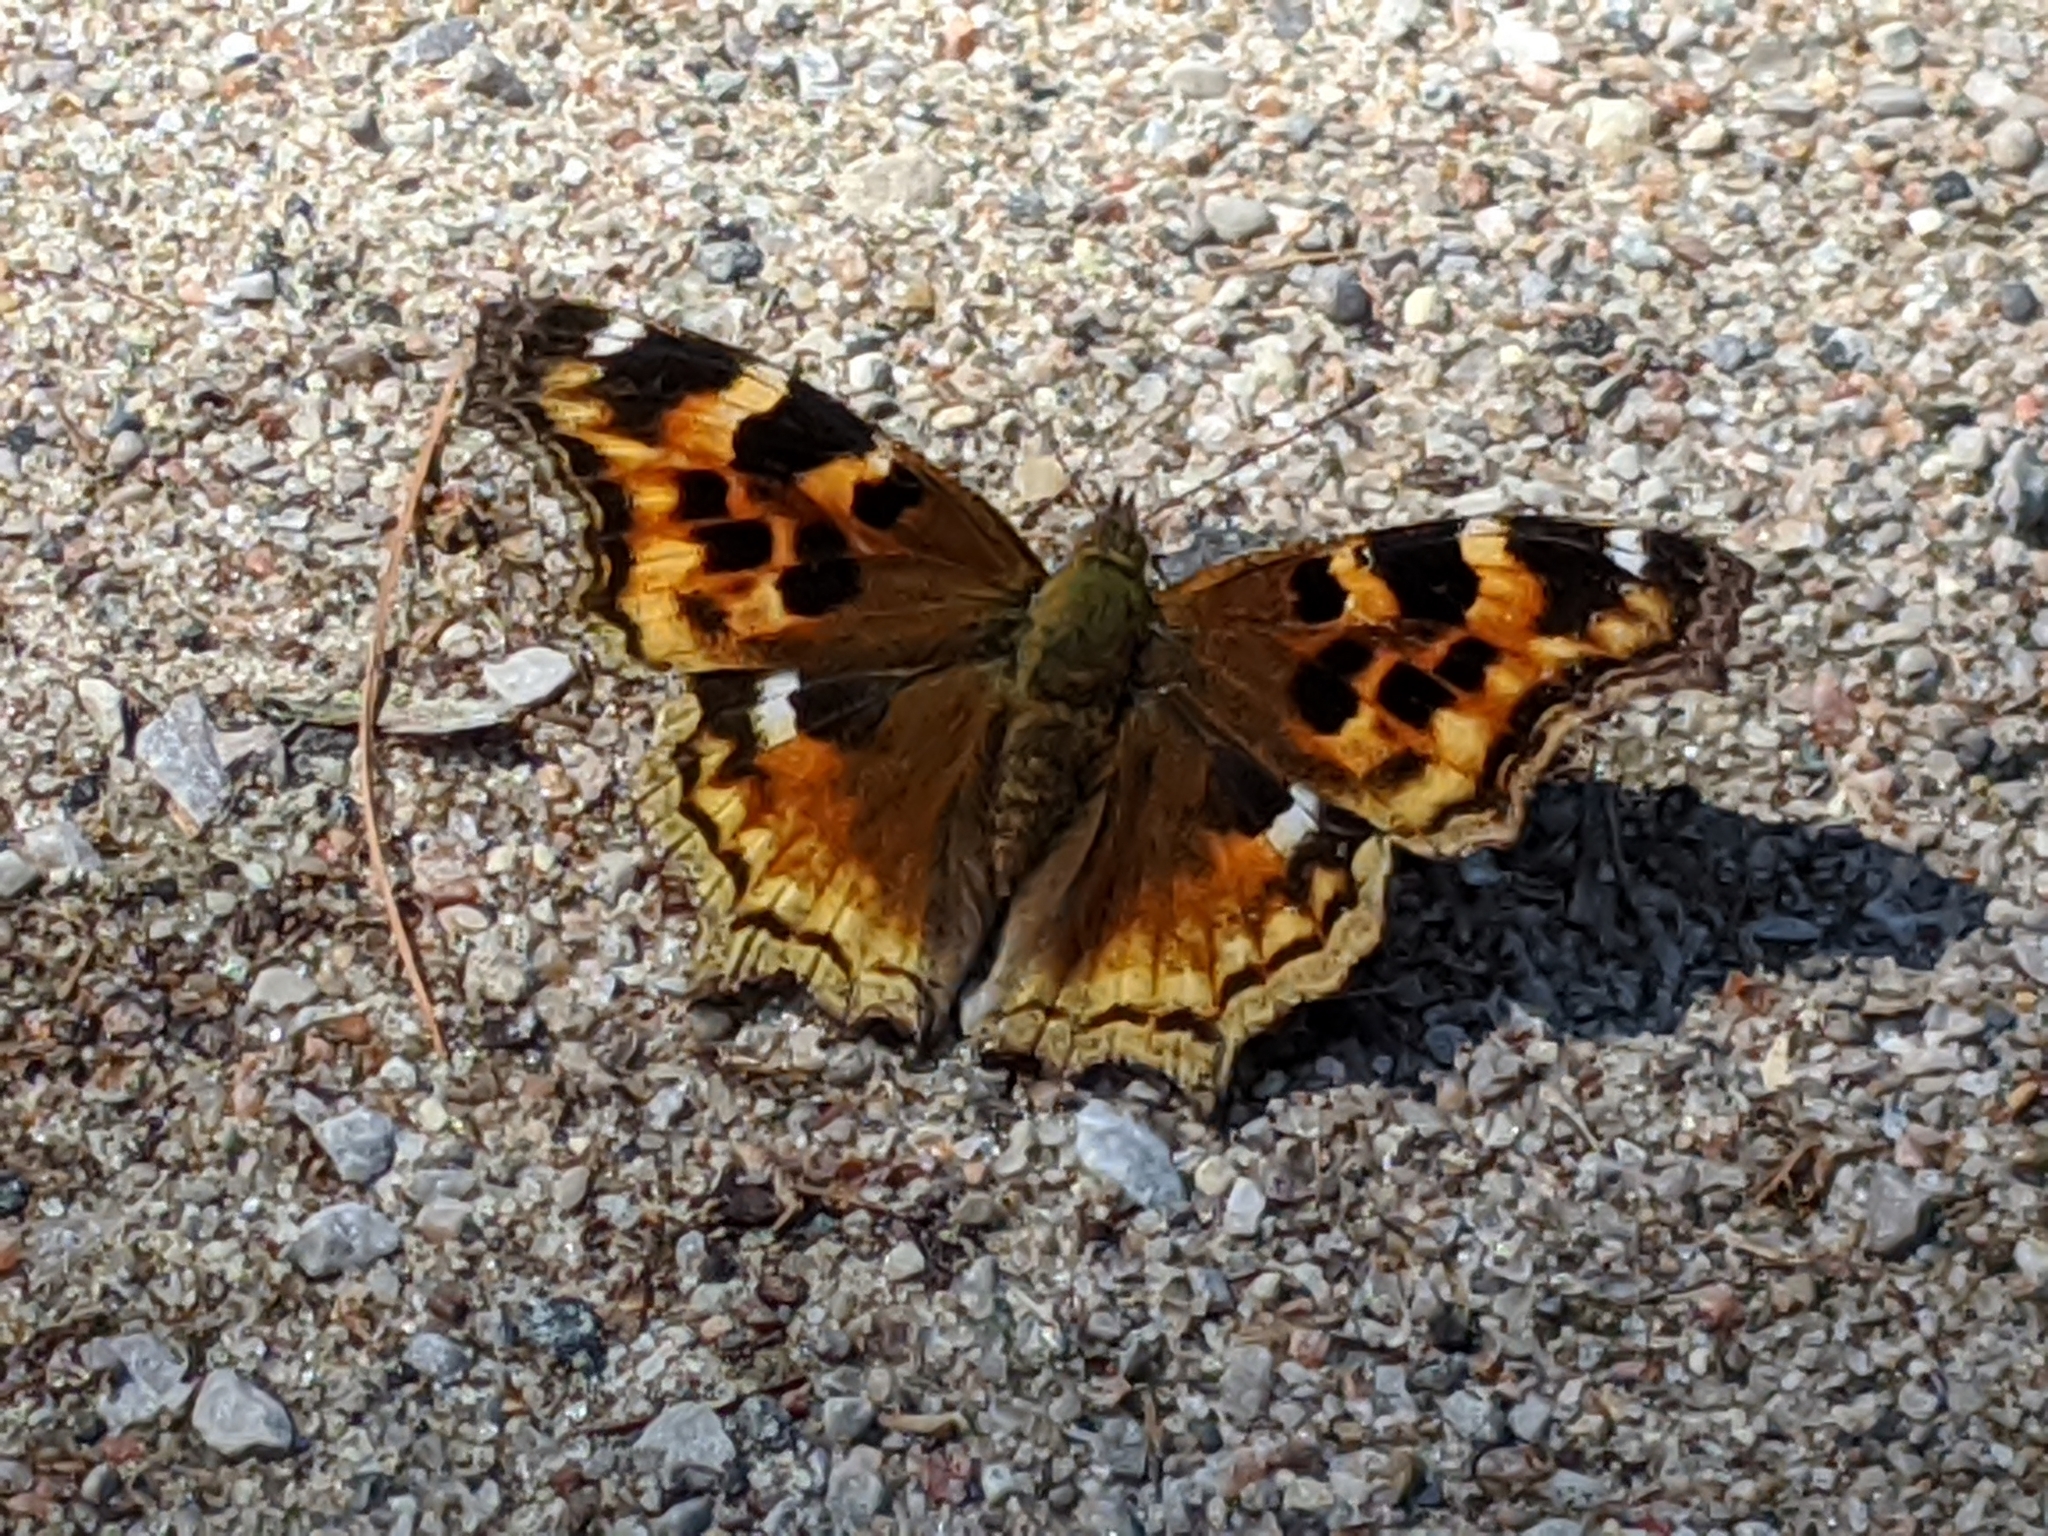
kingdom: Animalia
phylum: Arthropoda
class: Insecta
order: Lepidoptera
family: Nymphalidae
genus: Polygonia
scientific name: Polygonia vaualbum
